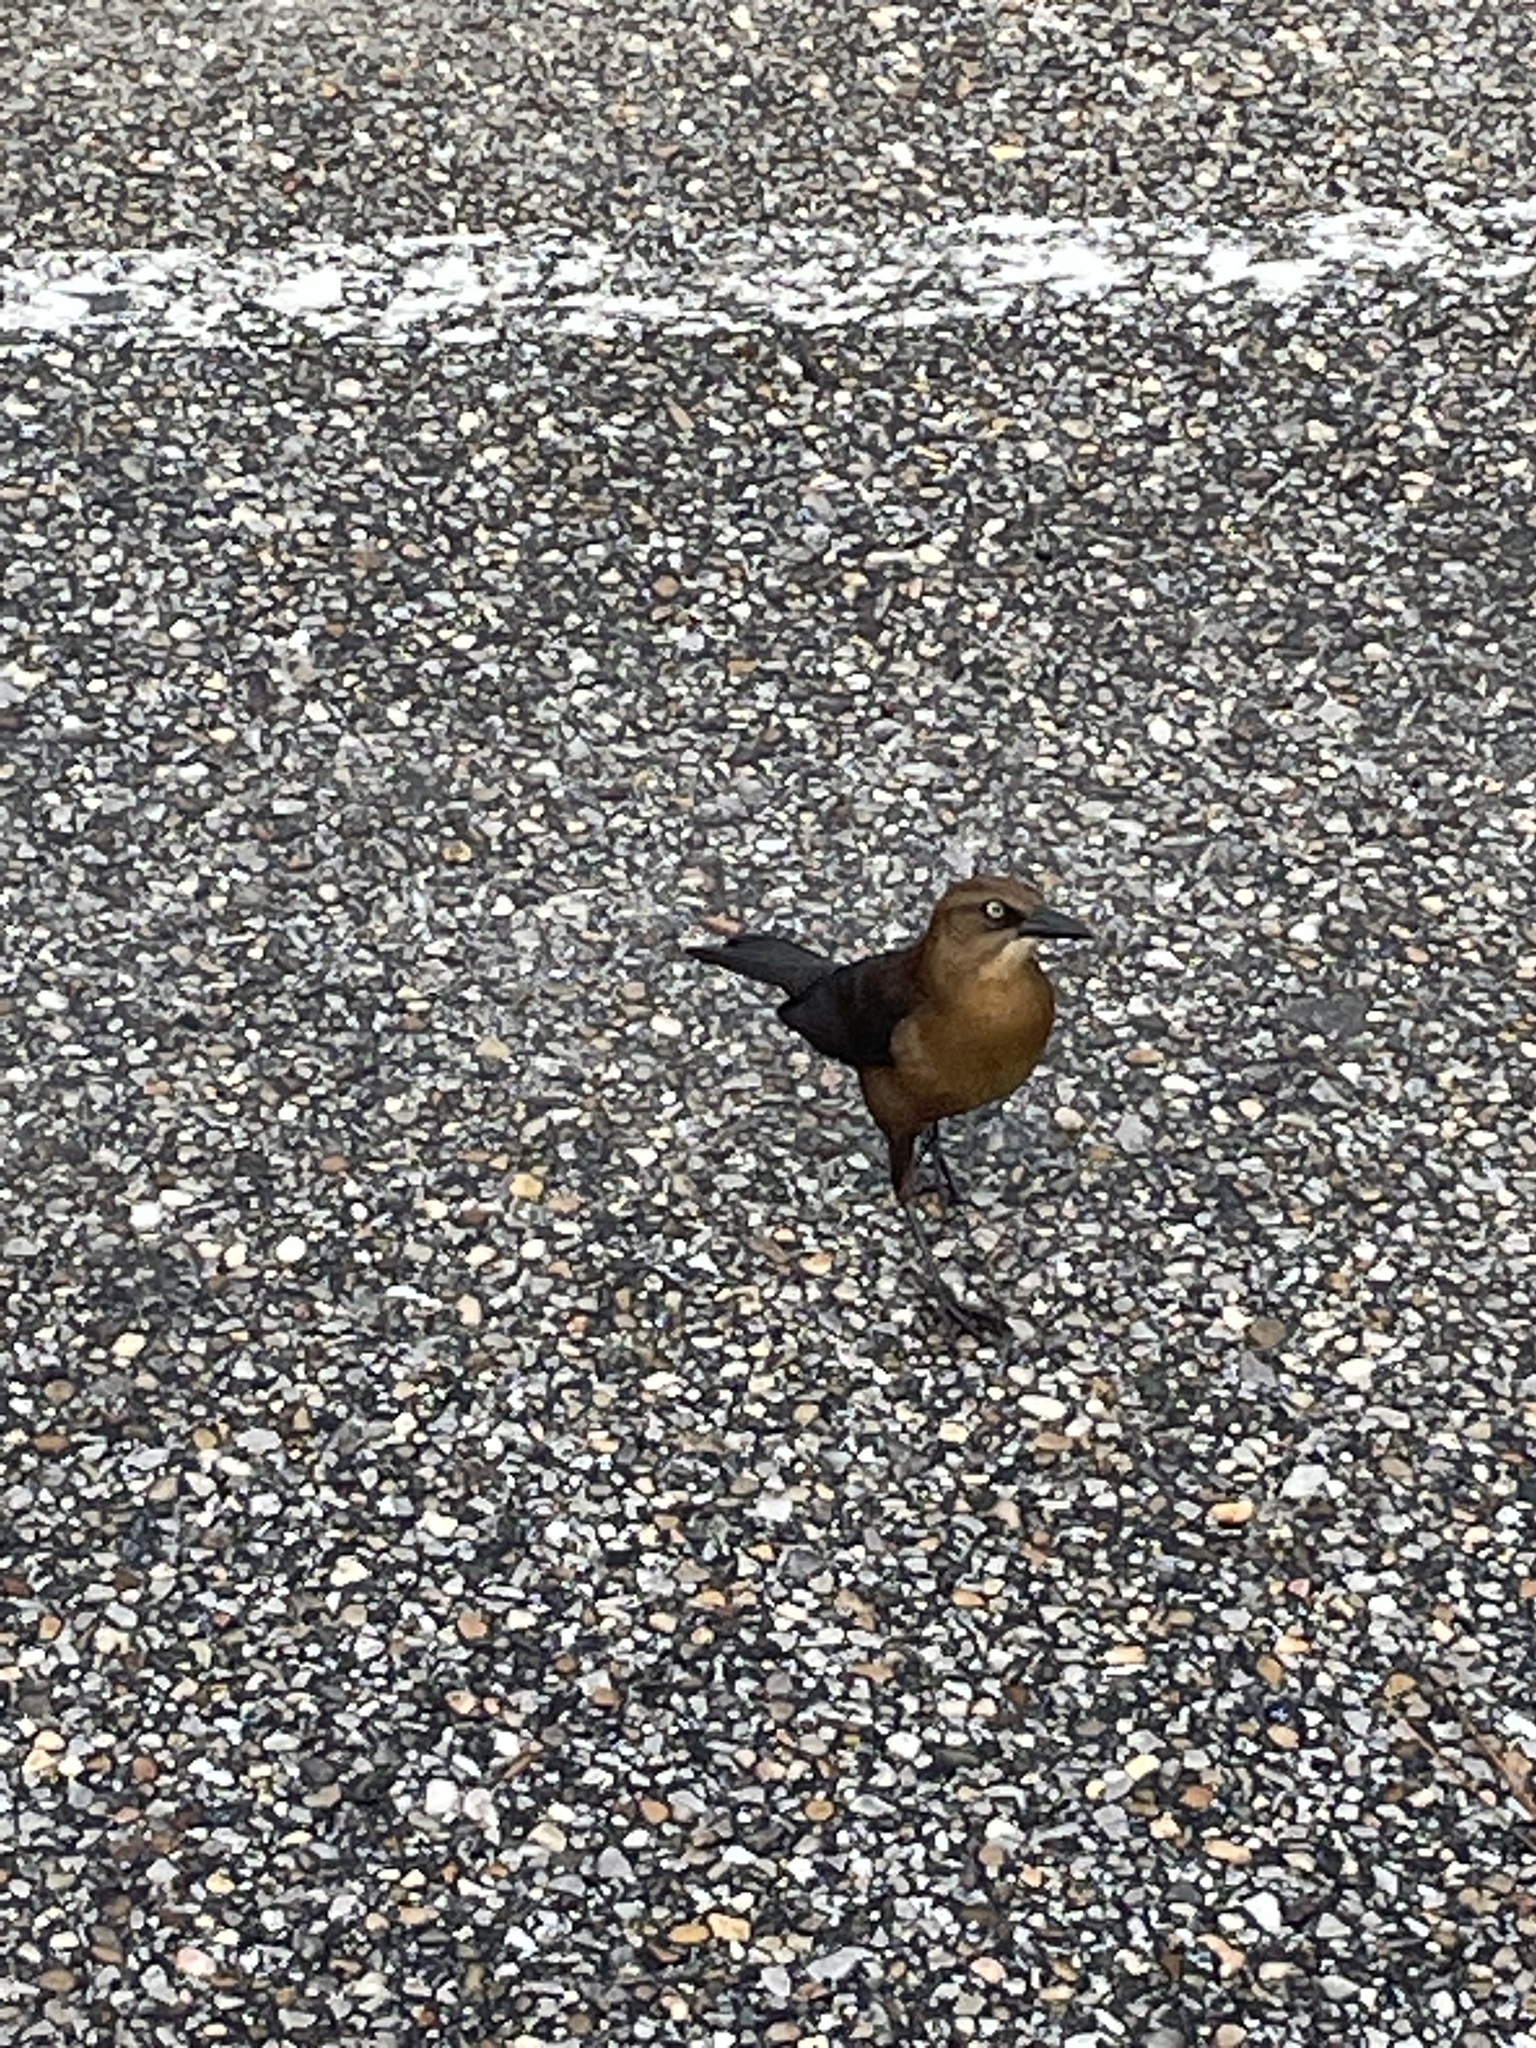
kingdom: Animalia
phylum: Chordata
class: Aves
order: Passeriformes
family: Icteridae
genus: Quiscalus
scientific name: Quiscalus major
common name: Boat-tailed grackle
